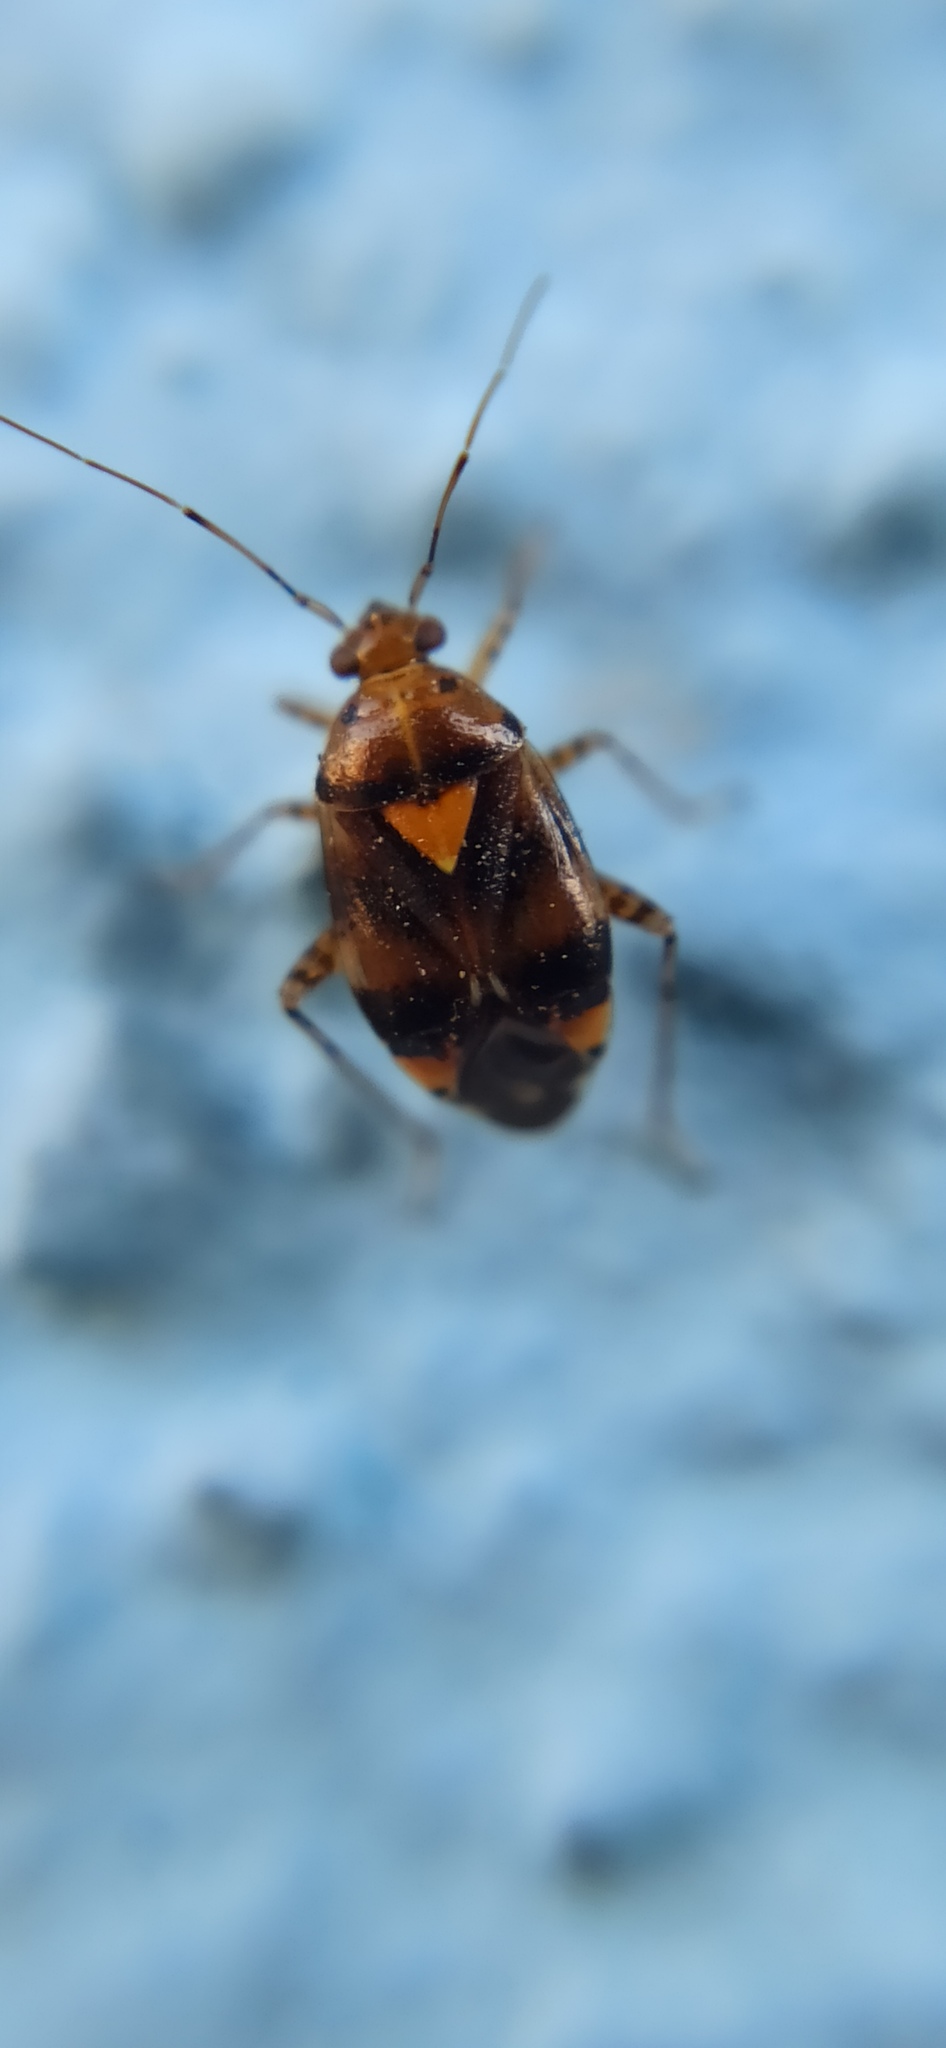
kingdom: Animalia
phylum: Arthropoda
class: Insecta
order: Hemiptera
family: Miridae
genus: Liocoris
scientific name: Liocoris tripustulatus
